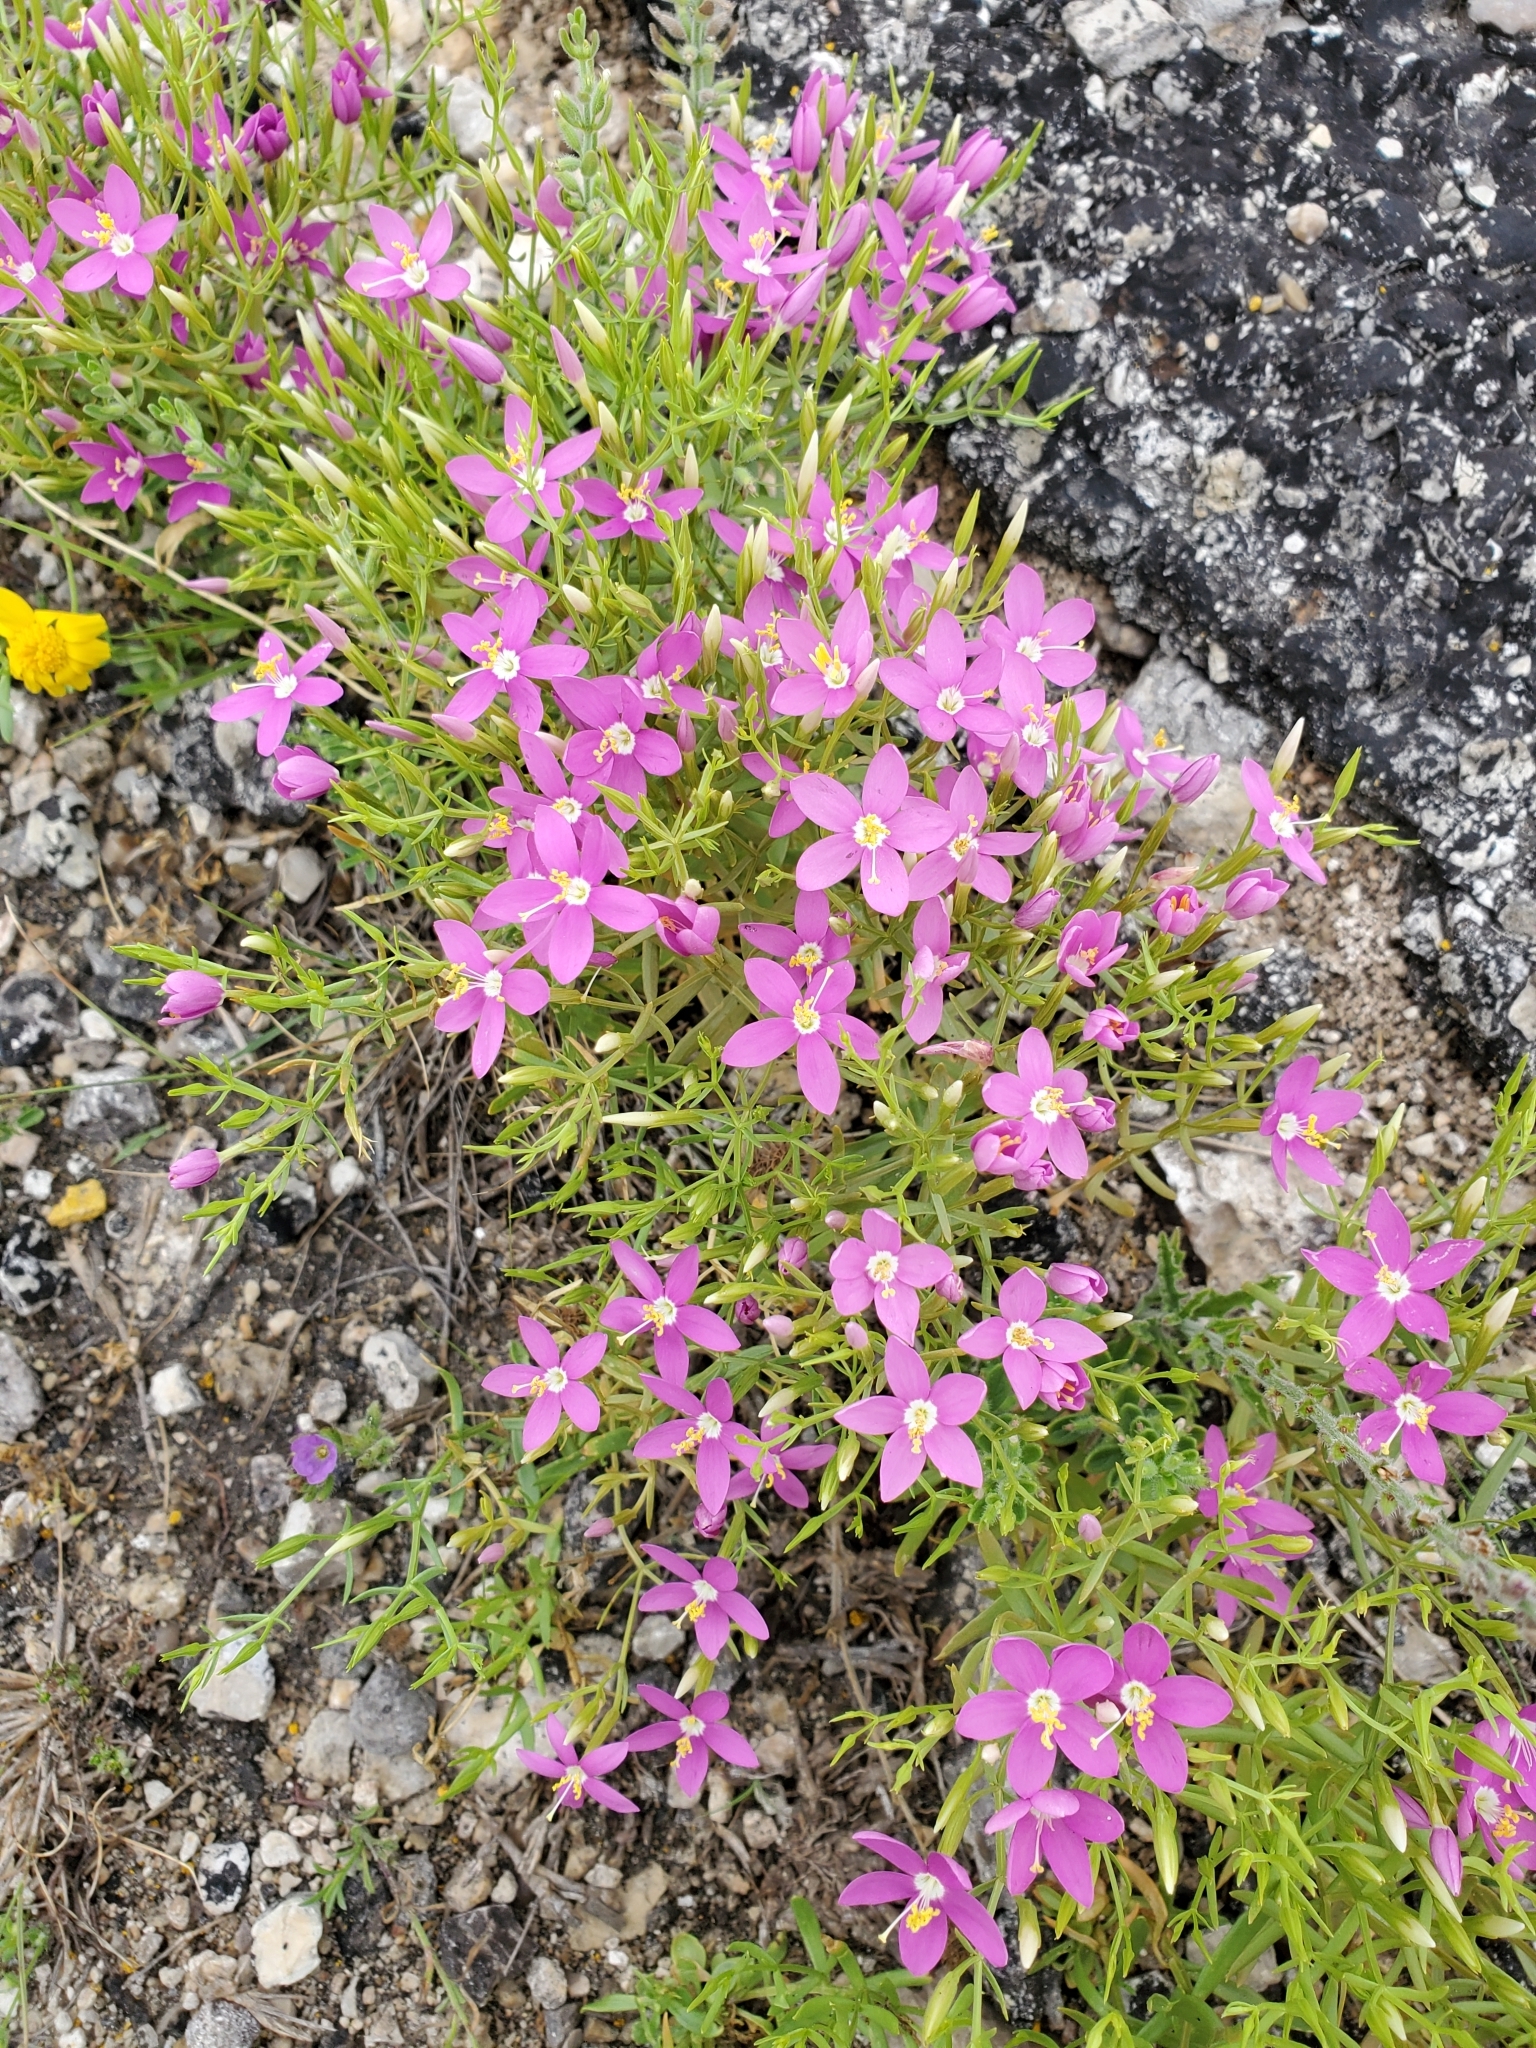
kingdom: Plantae
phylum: Tracheophyta
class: Magnoliopsida
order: Gentianales
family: Gentianaceae
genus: Zeltnera
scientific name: Zeltnera calycosa
